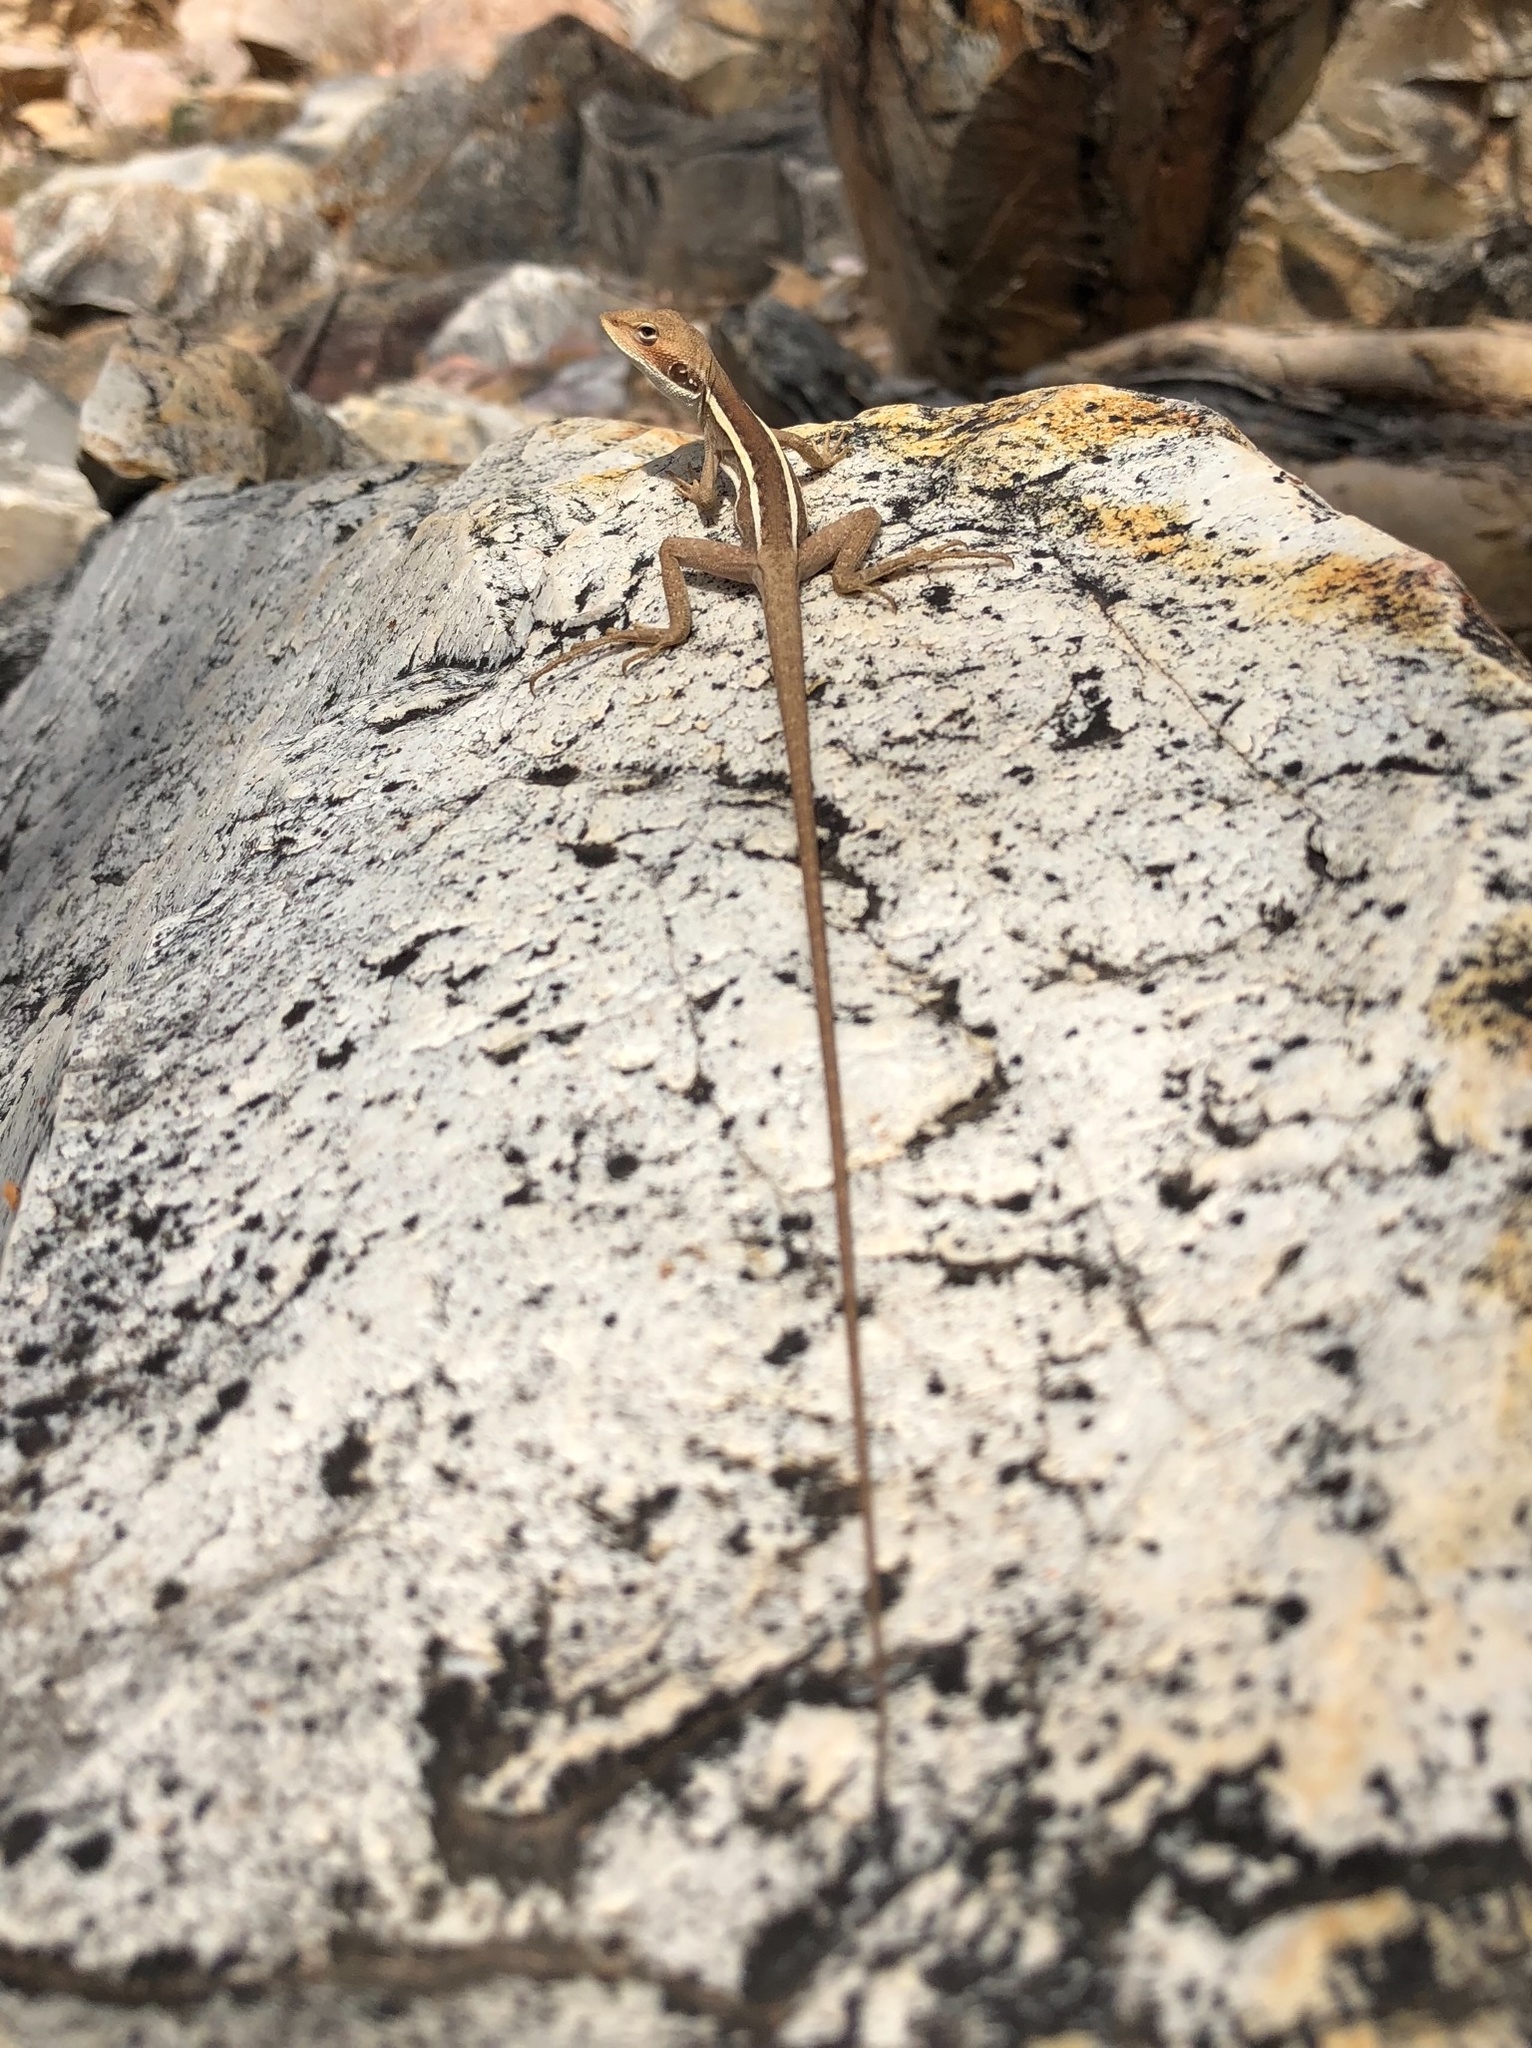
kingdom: Animalia
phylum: Chordata
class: Squamata
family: Agamidae
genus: Gowidon
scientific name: Gowidon longirostris
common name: Long-nosed water dragon
